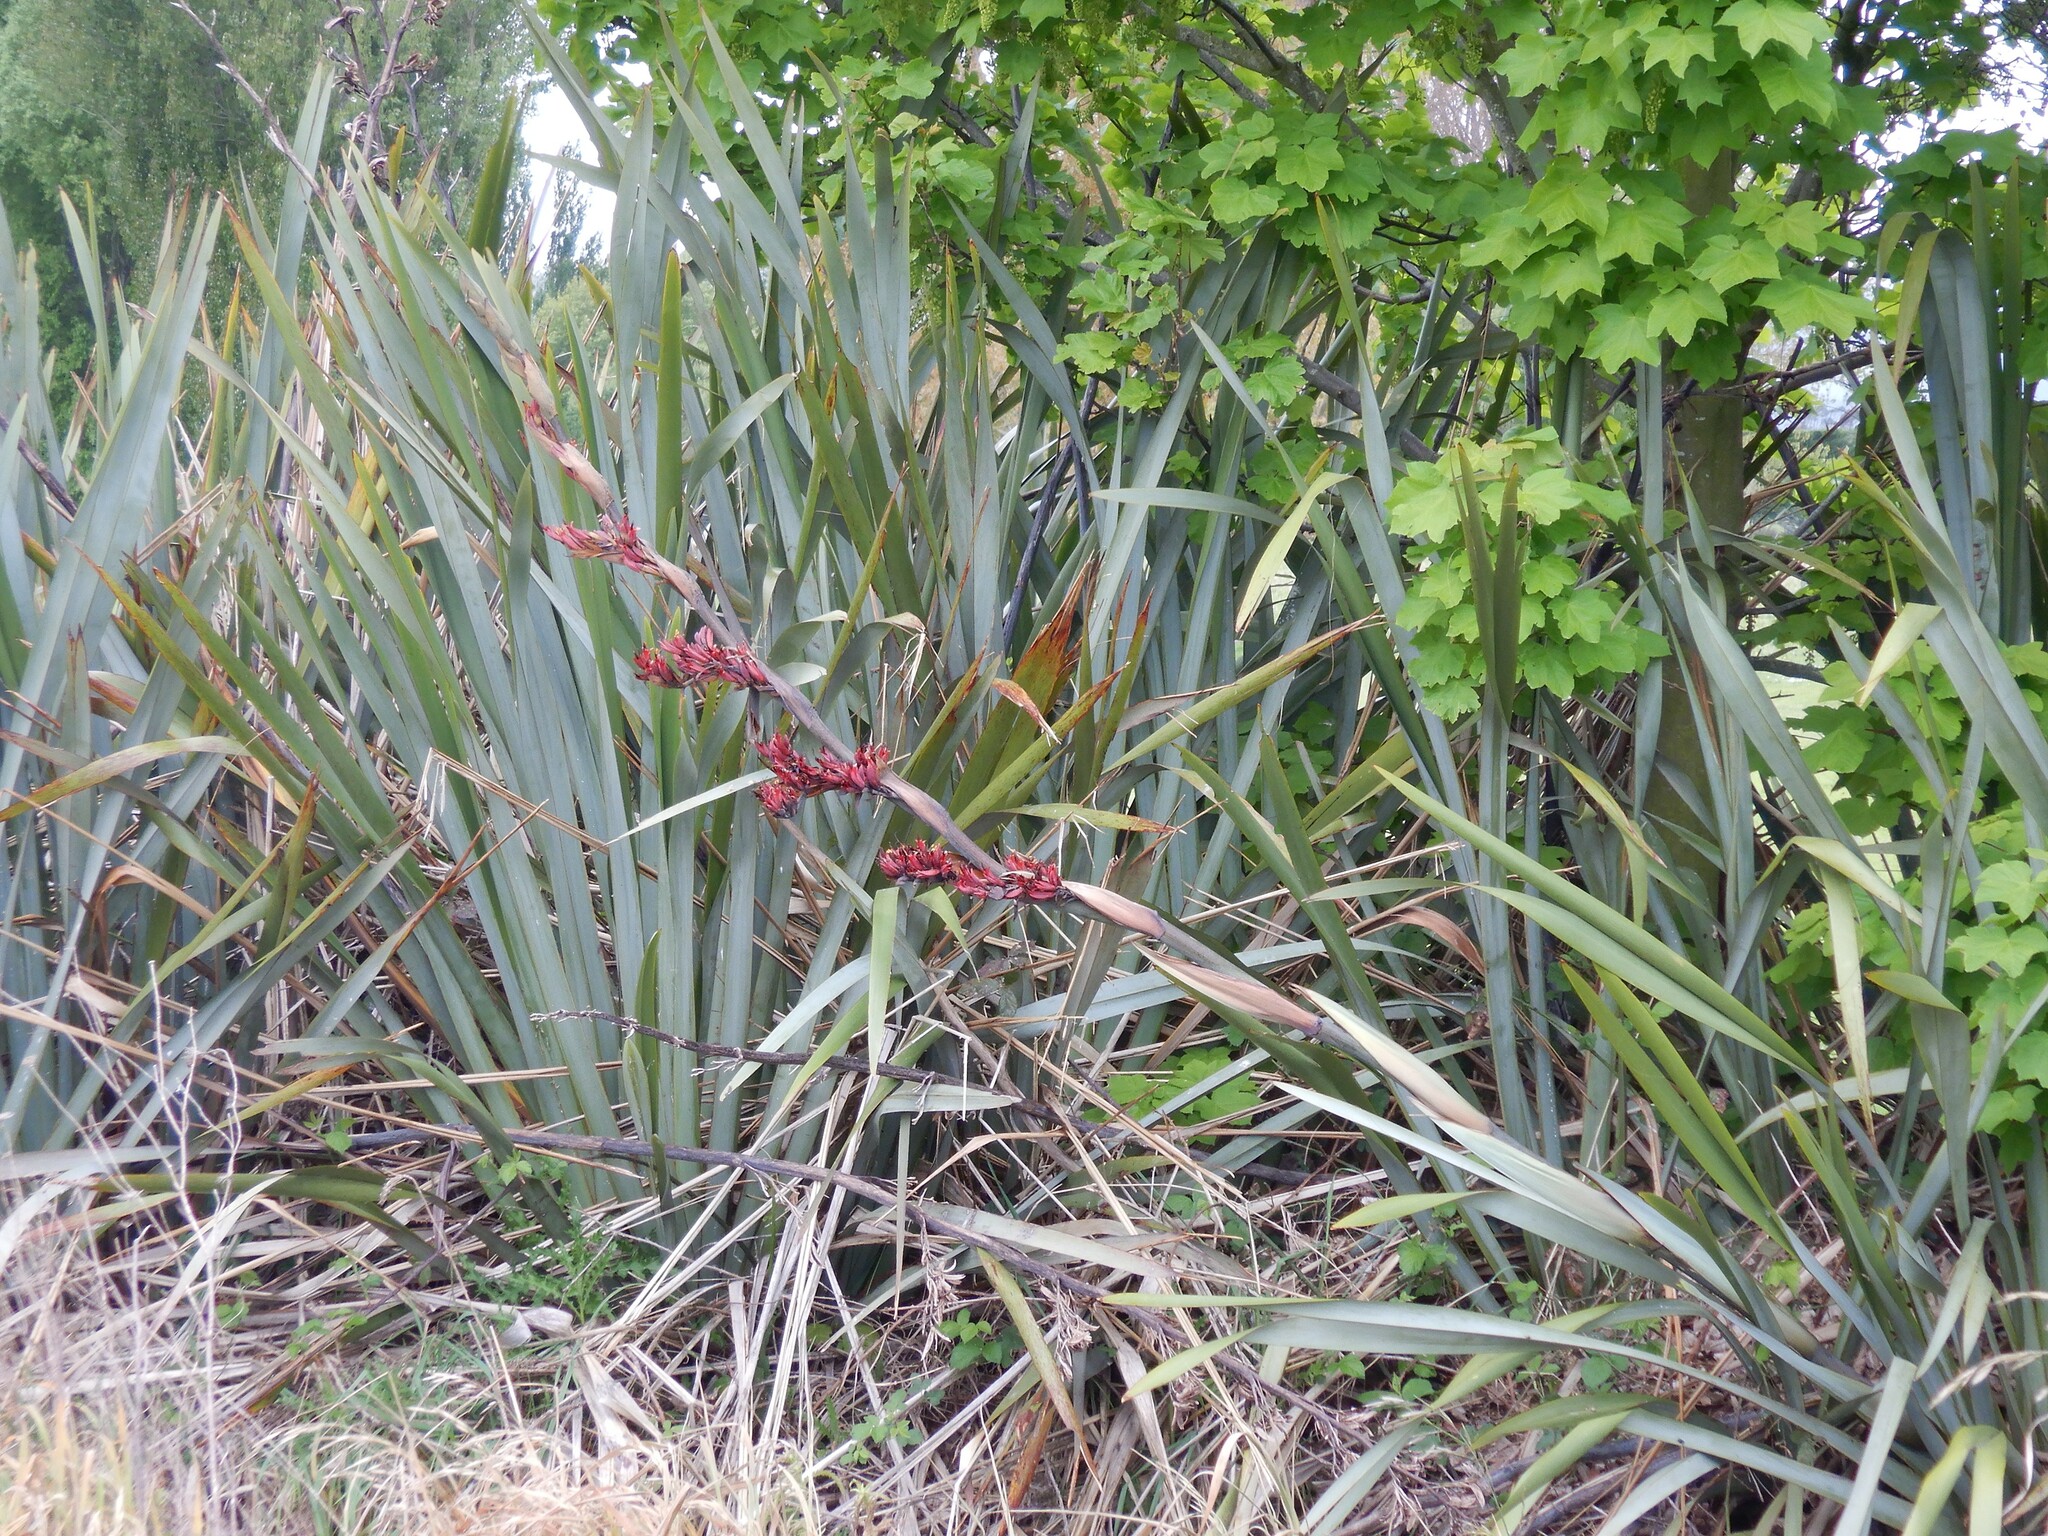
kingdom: Plantae
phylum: Tracheophyta
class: Liliopsida
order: Asparagales
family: Asphodelaceae
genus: Phormium
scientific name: Phormium tenax
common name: New zealand flax
